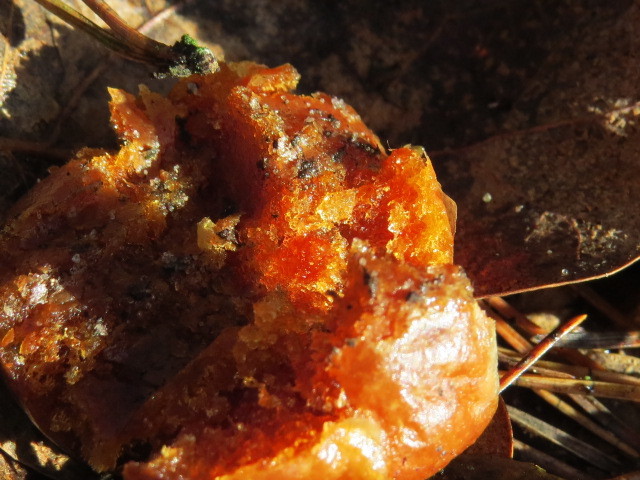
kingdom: Animalia
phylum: Arthropoda
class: Insecta
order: Hymenoptera
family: Cynipidae
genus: Cynips
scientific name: Cynips quercusfolii
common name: Cherry gall
